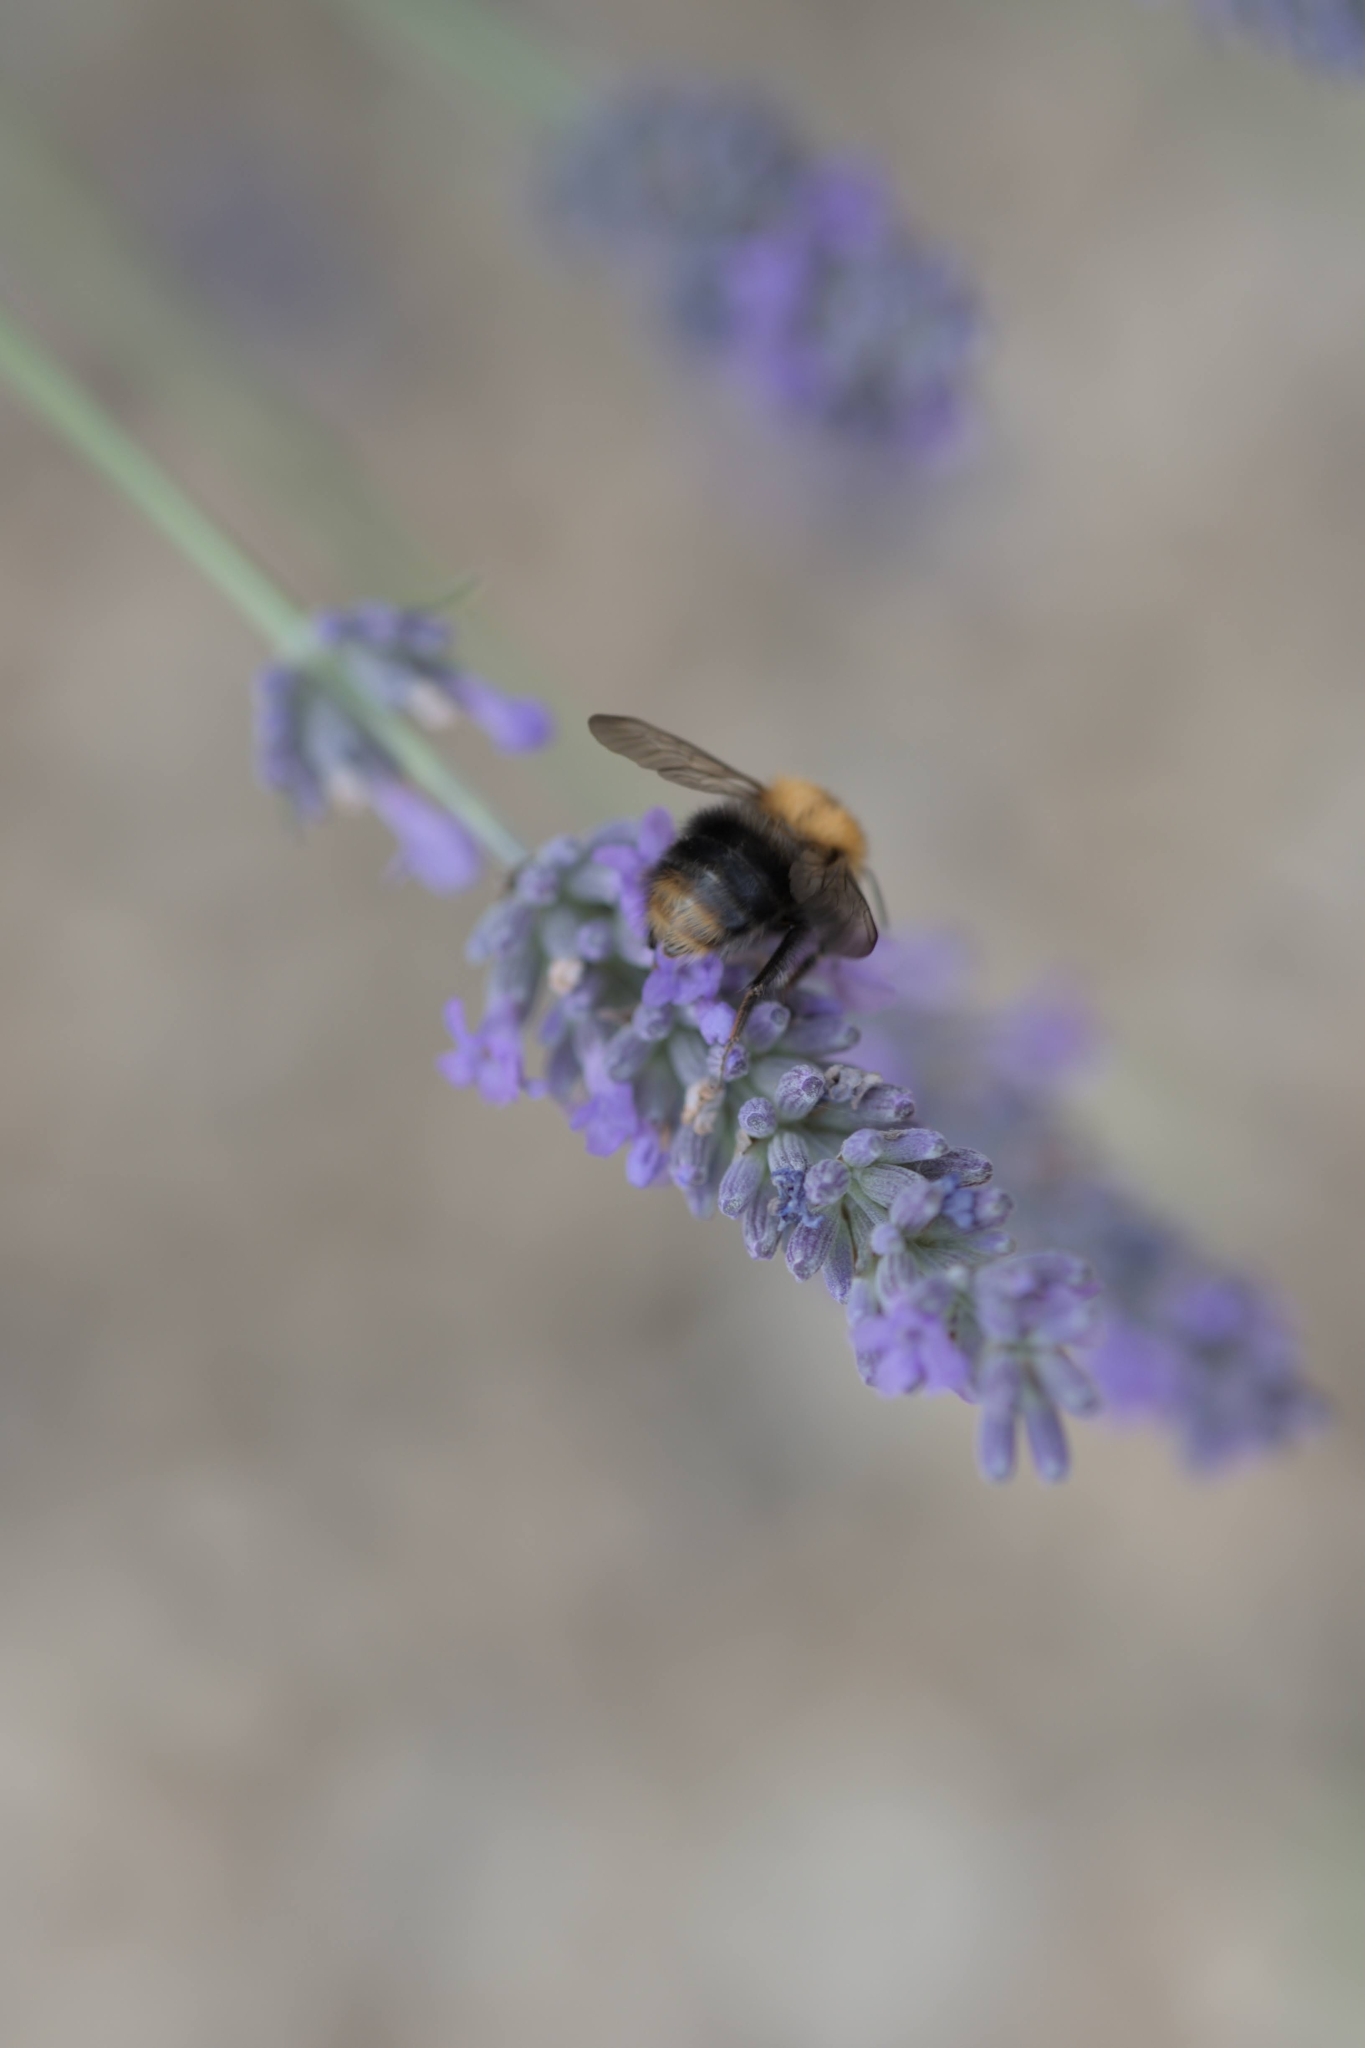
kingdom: Animalia
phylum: Arthropoda
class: Insecta
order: Hymenoptera
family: Apidae
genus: Bombus
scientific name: Bombus pascuorum
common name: Common carder bee
